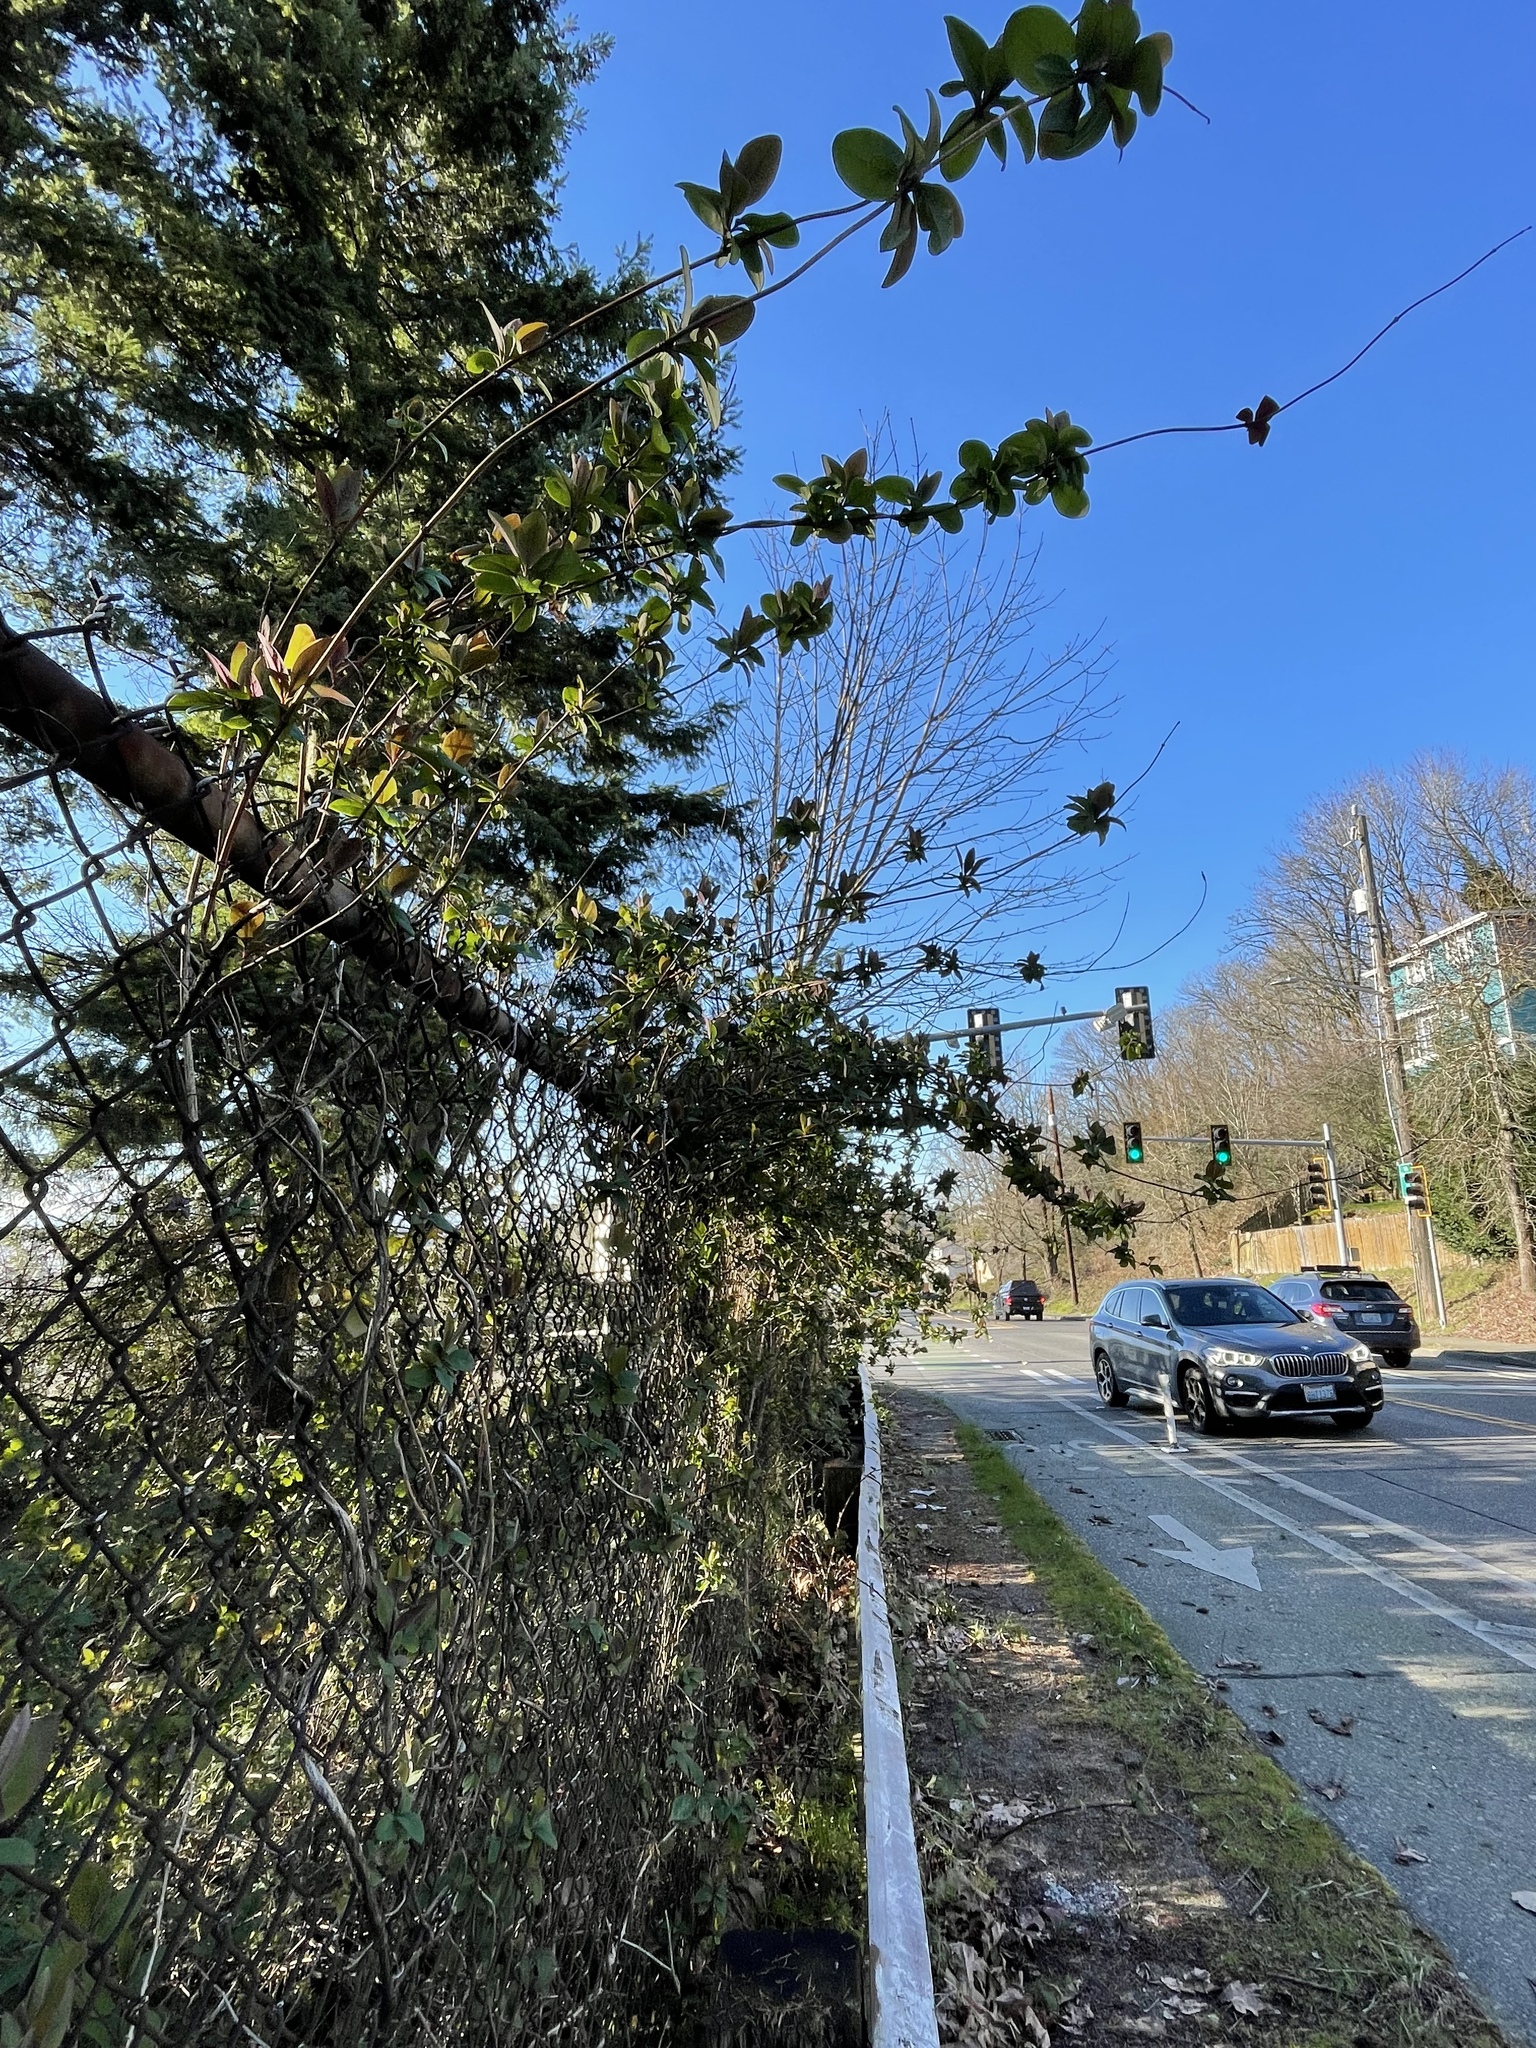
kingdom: Plantae
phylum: Tracheophyta
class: Magnoliopsida
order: Dipsacales
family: Caprifoliaceae
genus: Lonicera
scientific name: Lonicera periclymenum
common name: European honeysuckle
